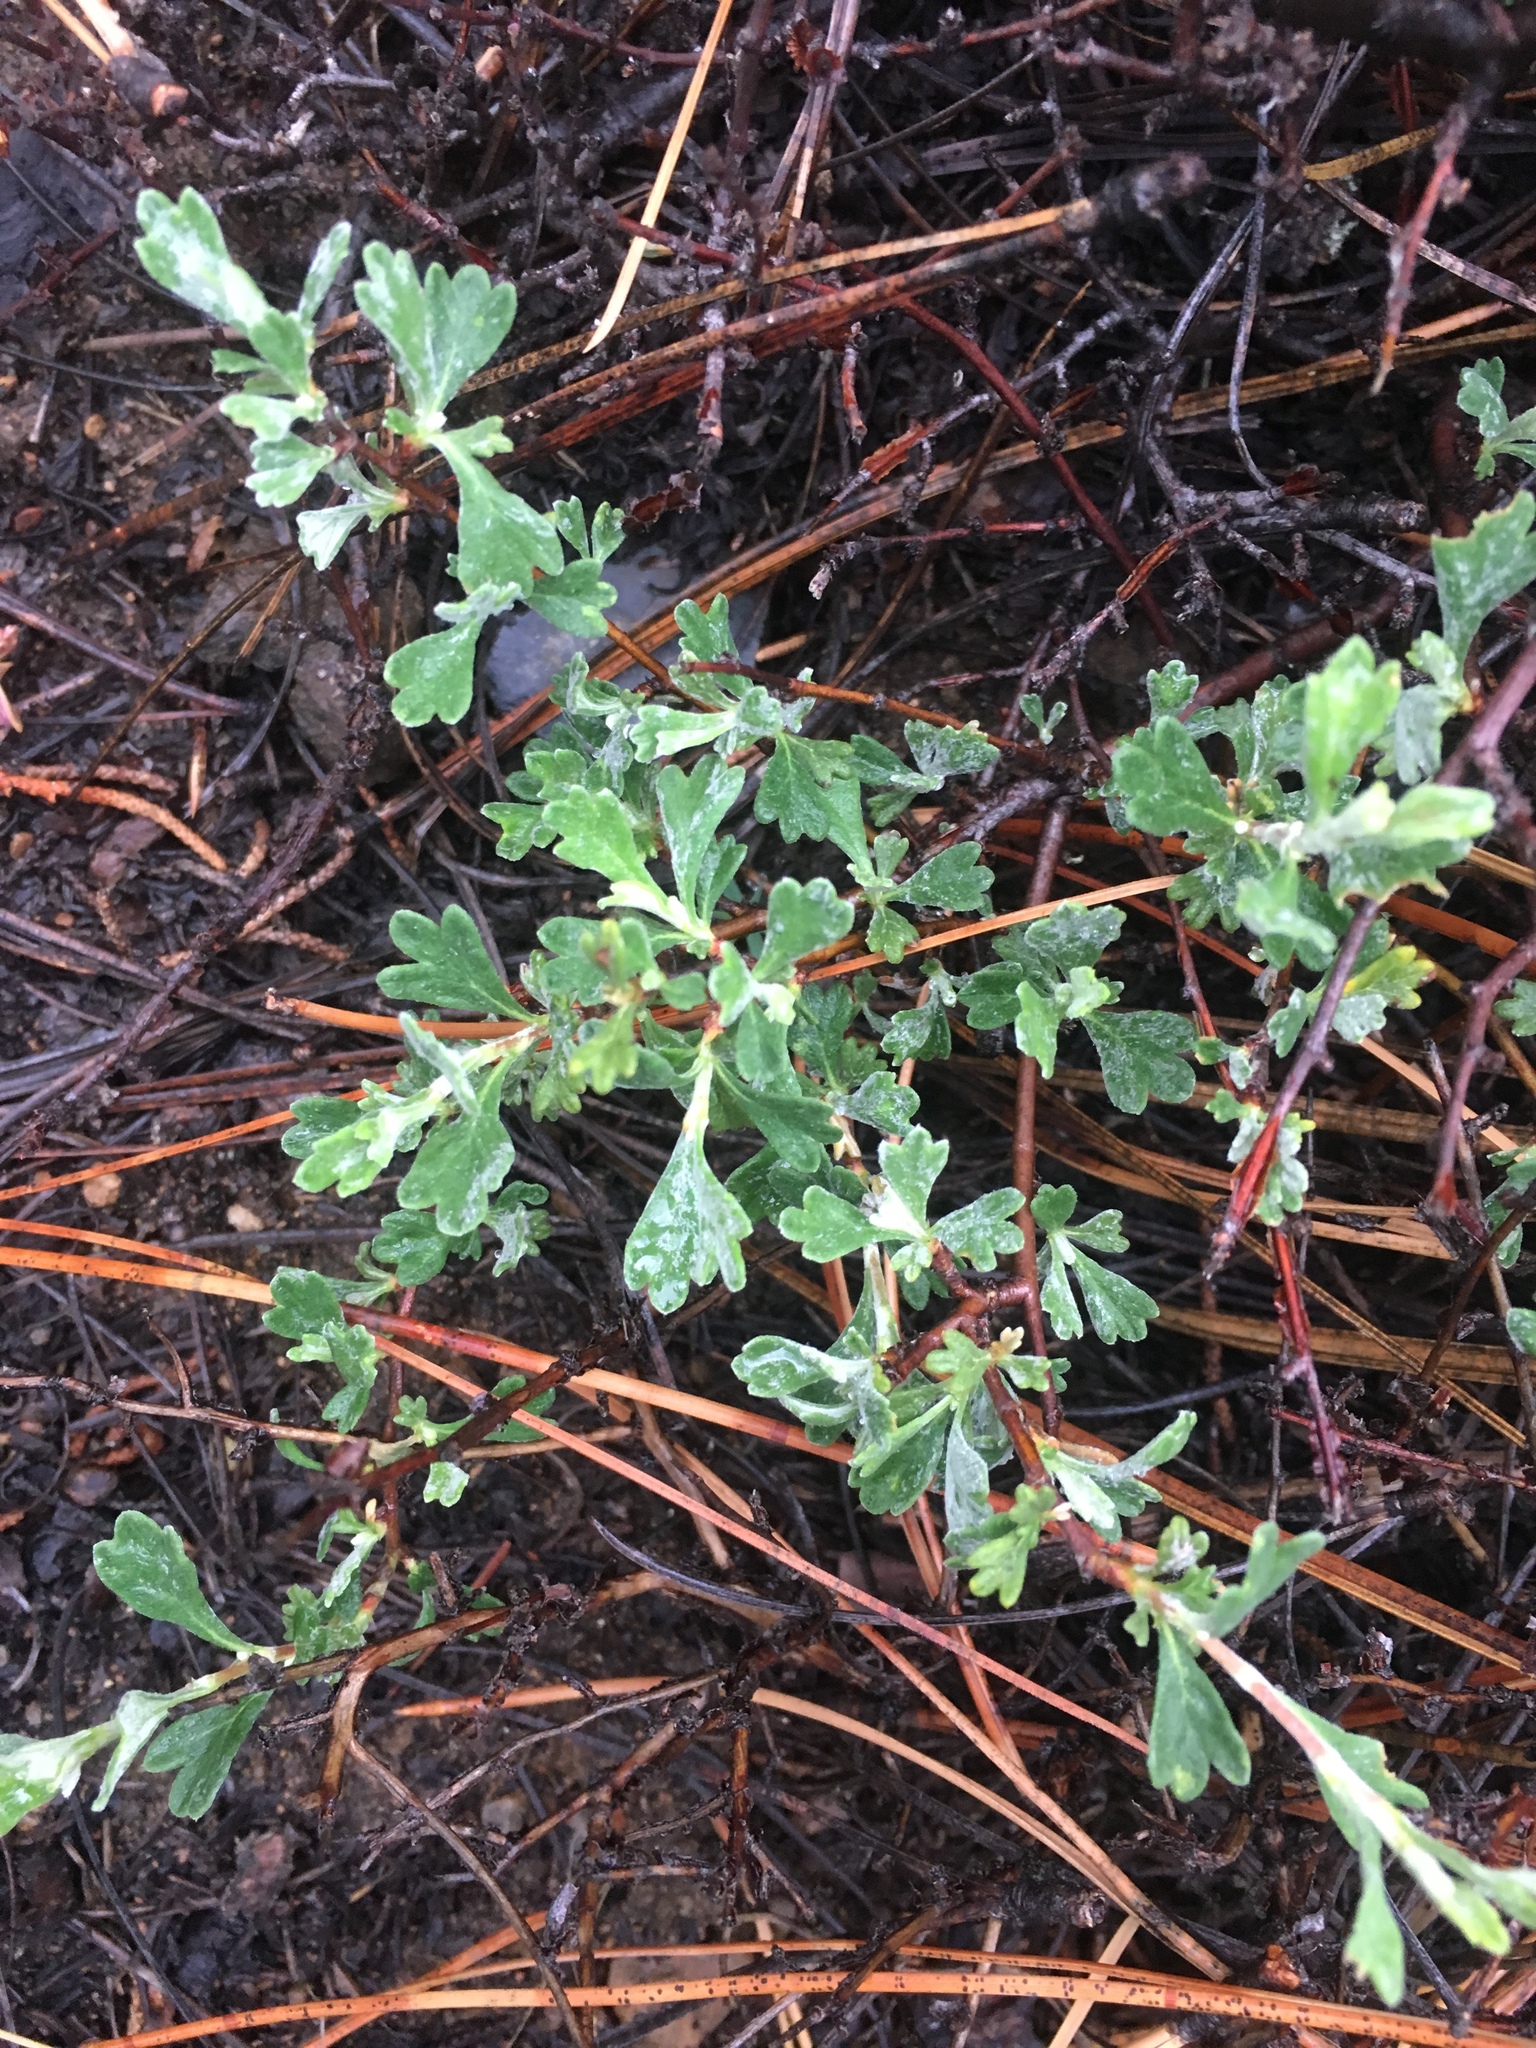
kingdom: Plantae
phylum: Tracheophyta
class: Magnoliopsida
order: Rosales
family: Rosaceae
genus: Purshia
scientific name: Purshia tridentata
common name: Antelope bitterbrush
